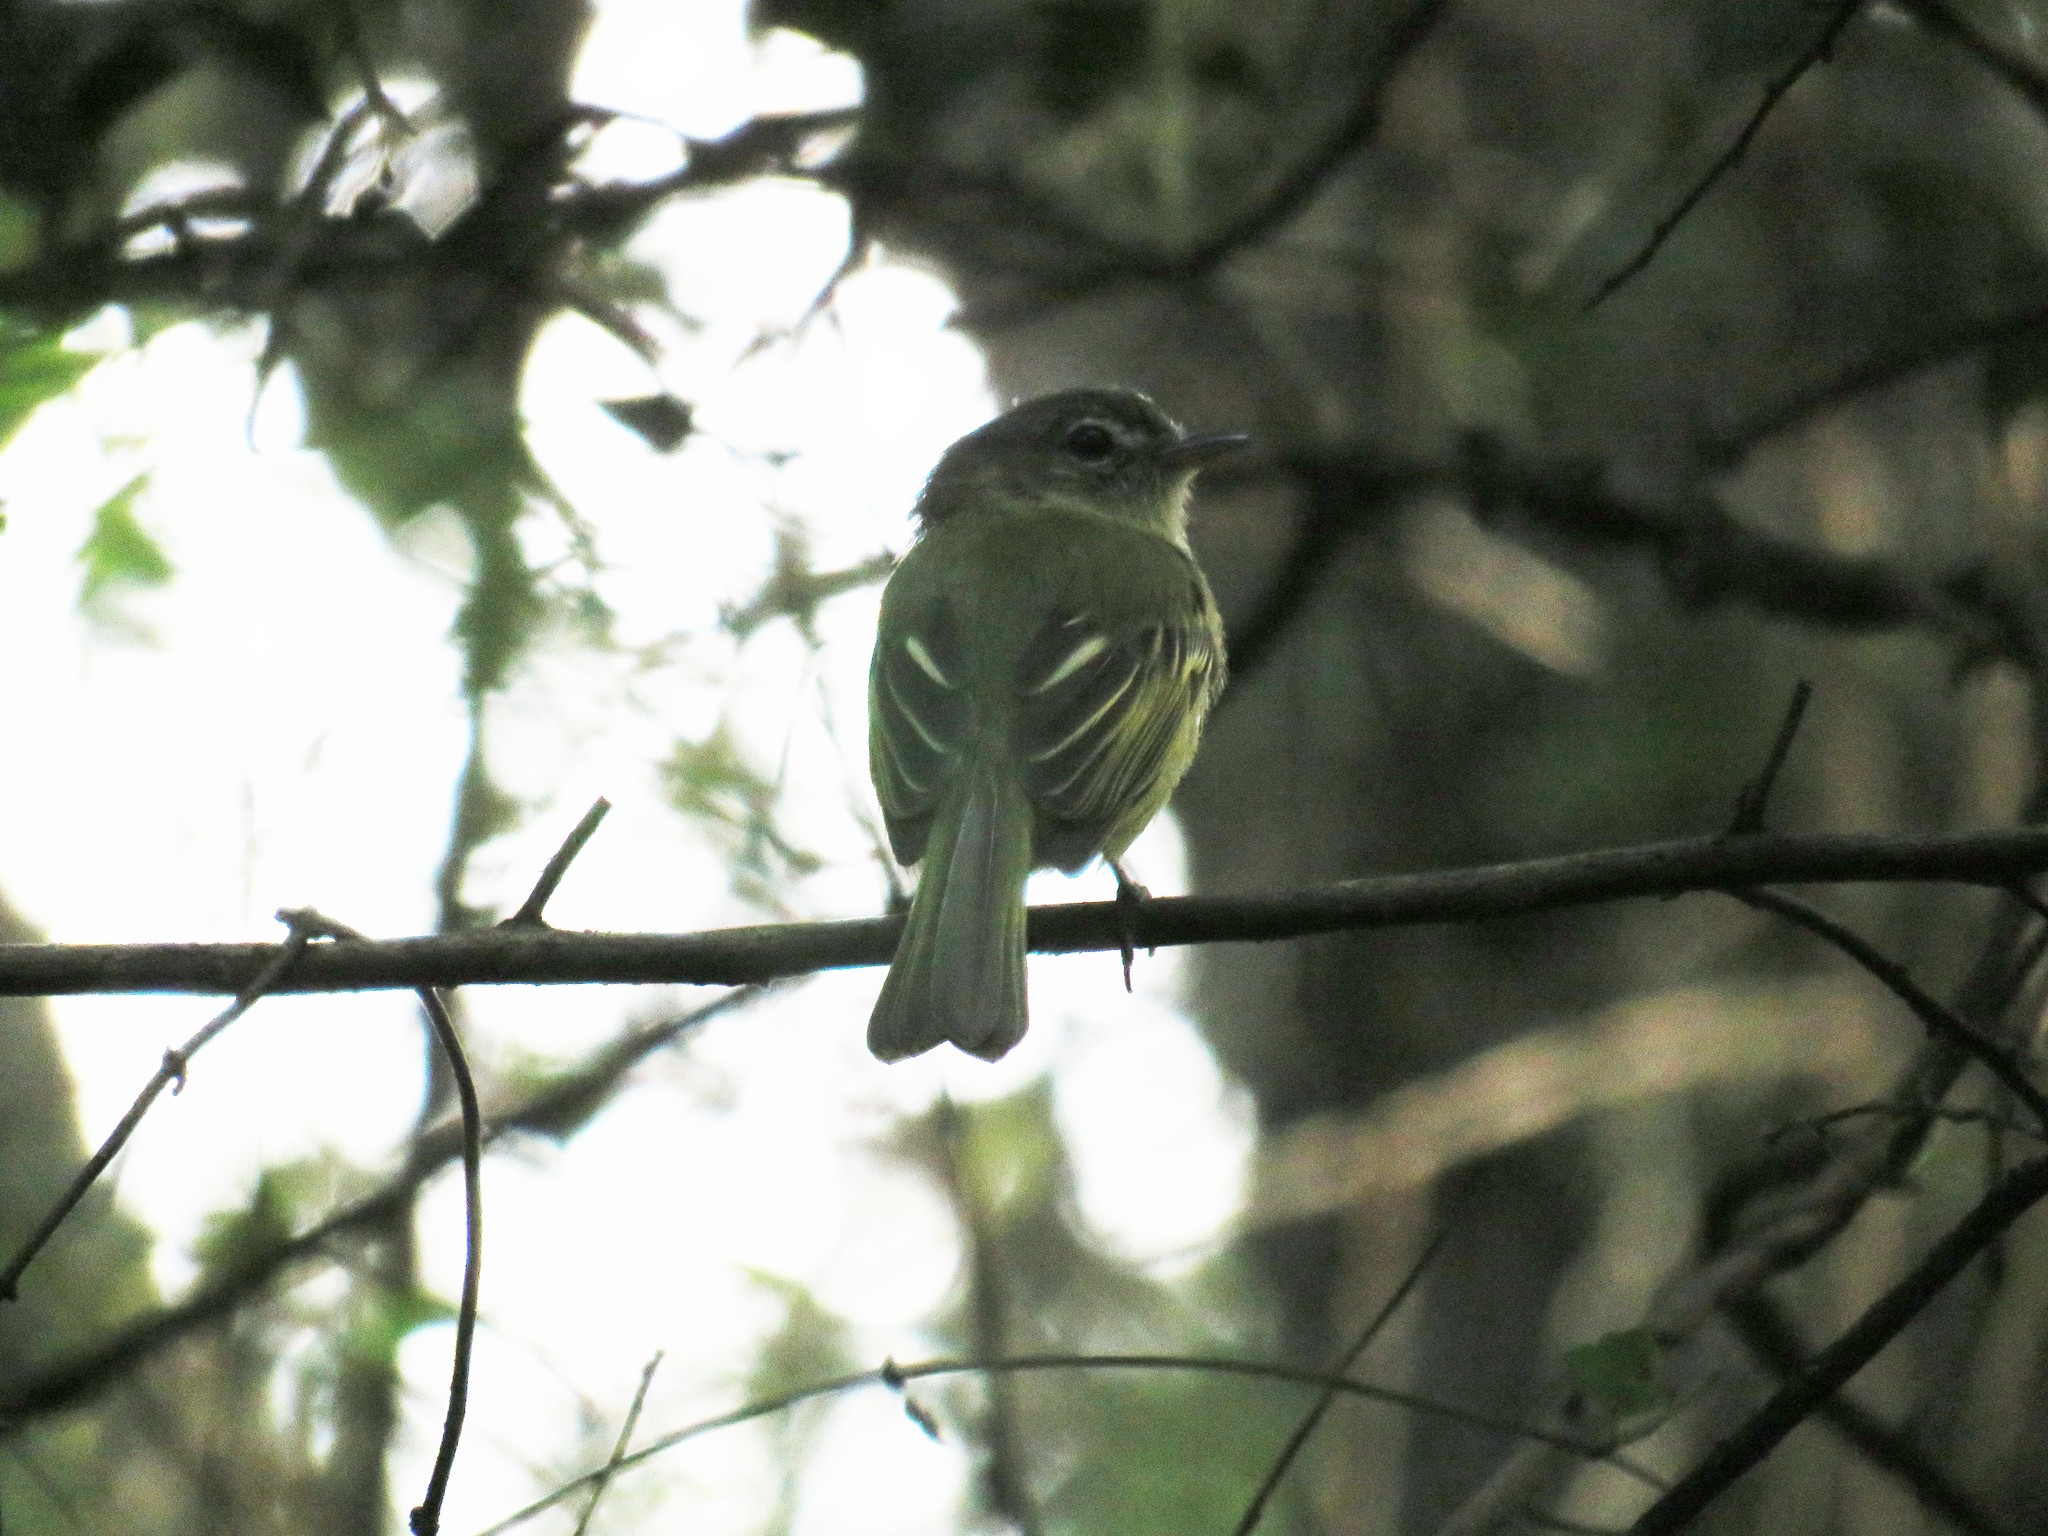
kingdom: Animalia
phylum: Chordata
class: Aves
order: Passeriformes
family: Tyrannidae
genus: Tolmomyias
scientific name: Tolmomyias sulphurescens
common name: Yellow-olive flycatcher
